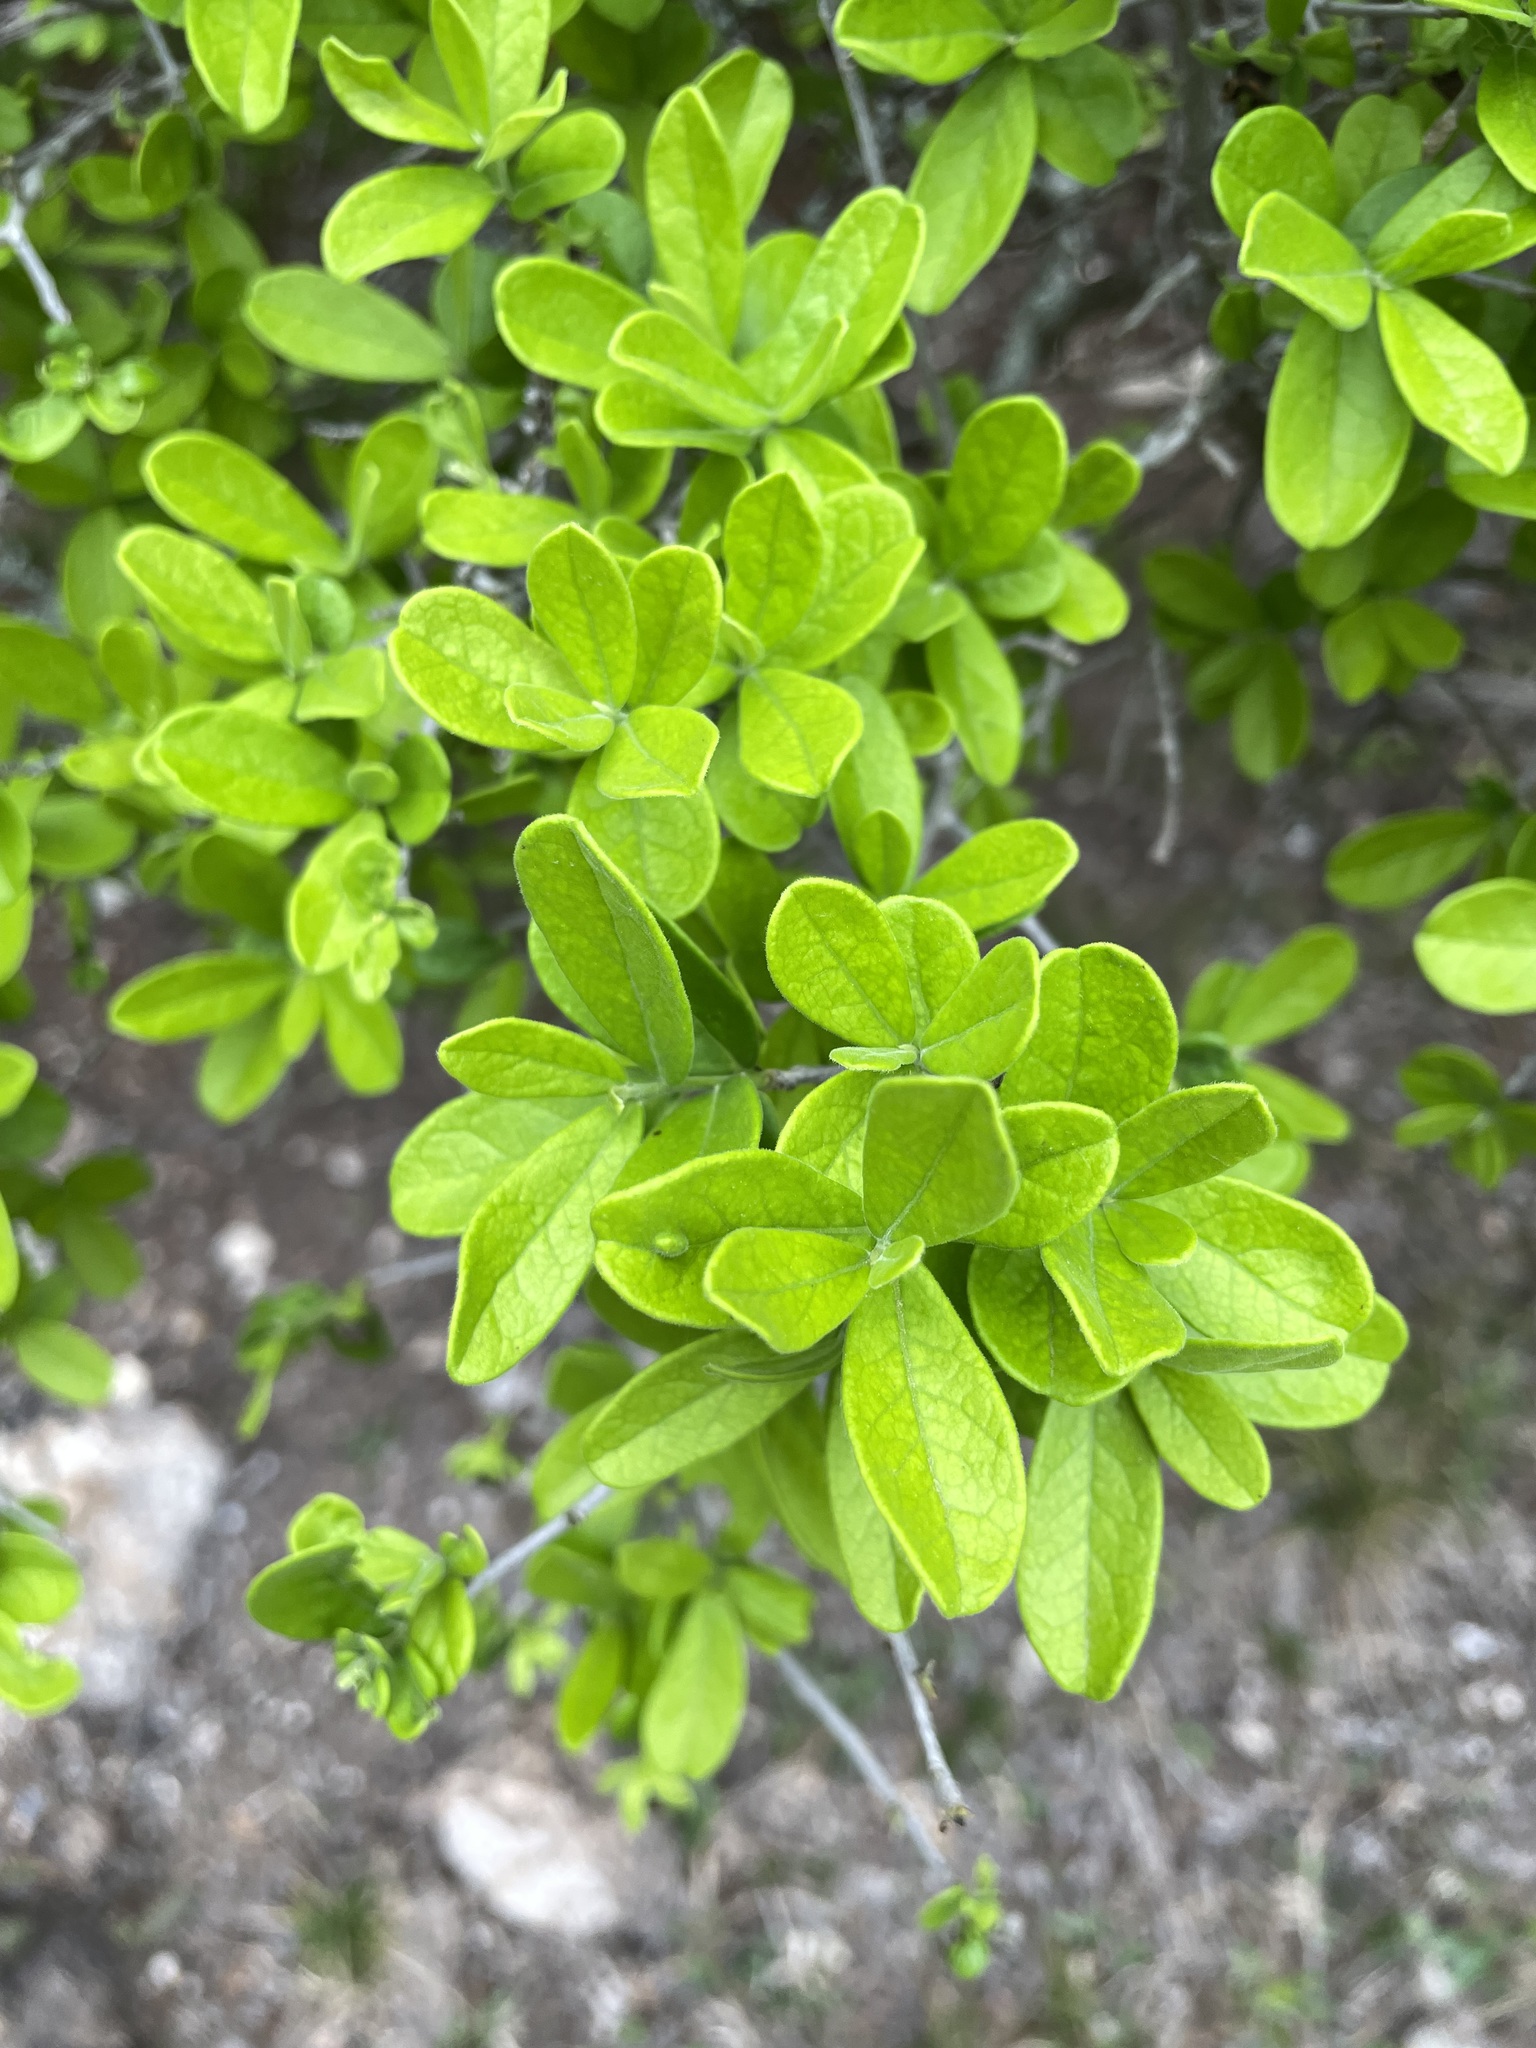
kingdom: Plantae
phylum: Tracheophyta
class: Magnoliopsida
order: Ericales
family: Ebenaceae
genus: Diospyros
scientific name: Diospyros texana
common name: Texas persimmon
